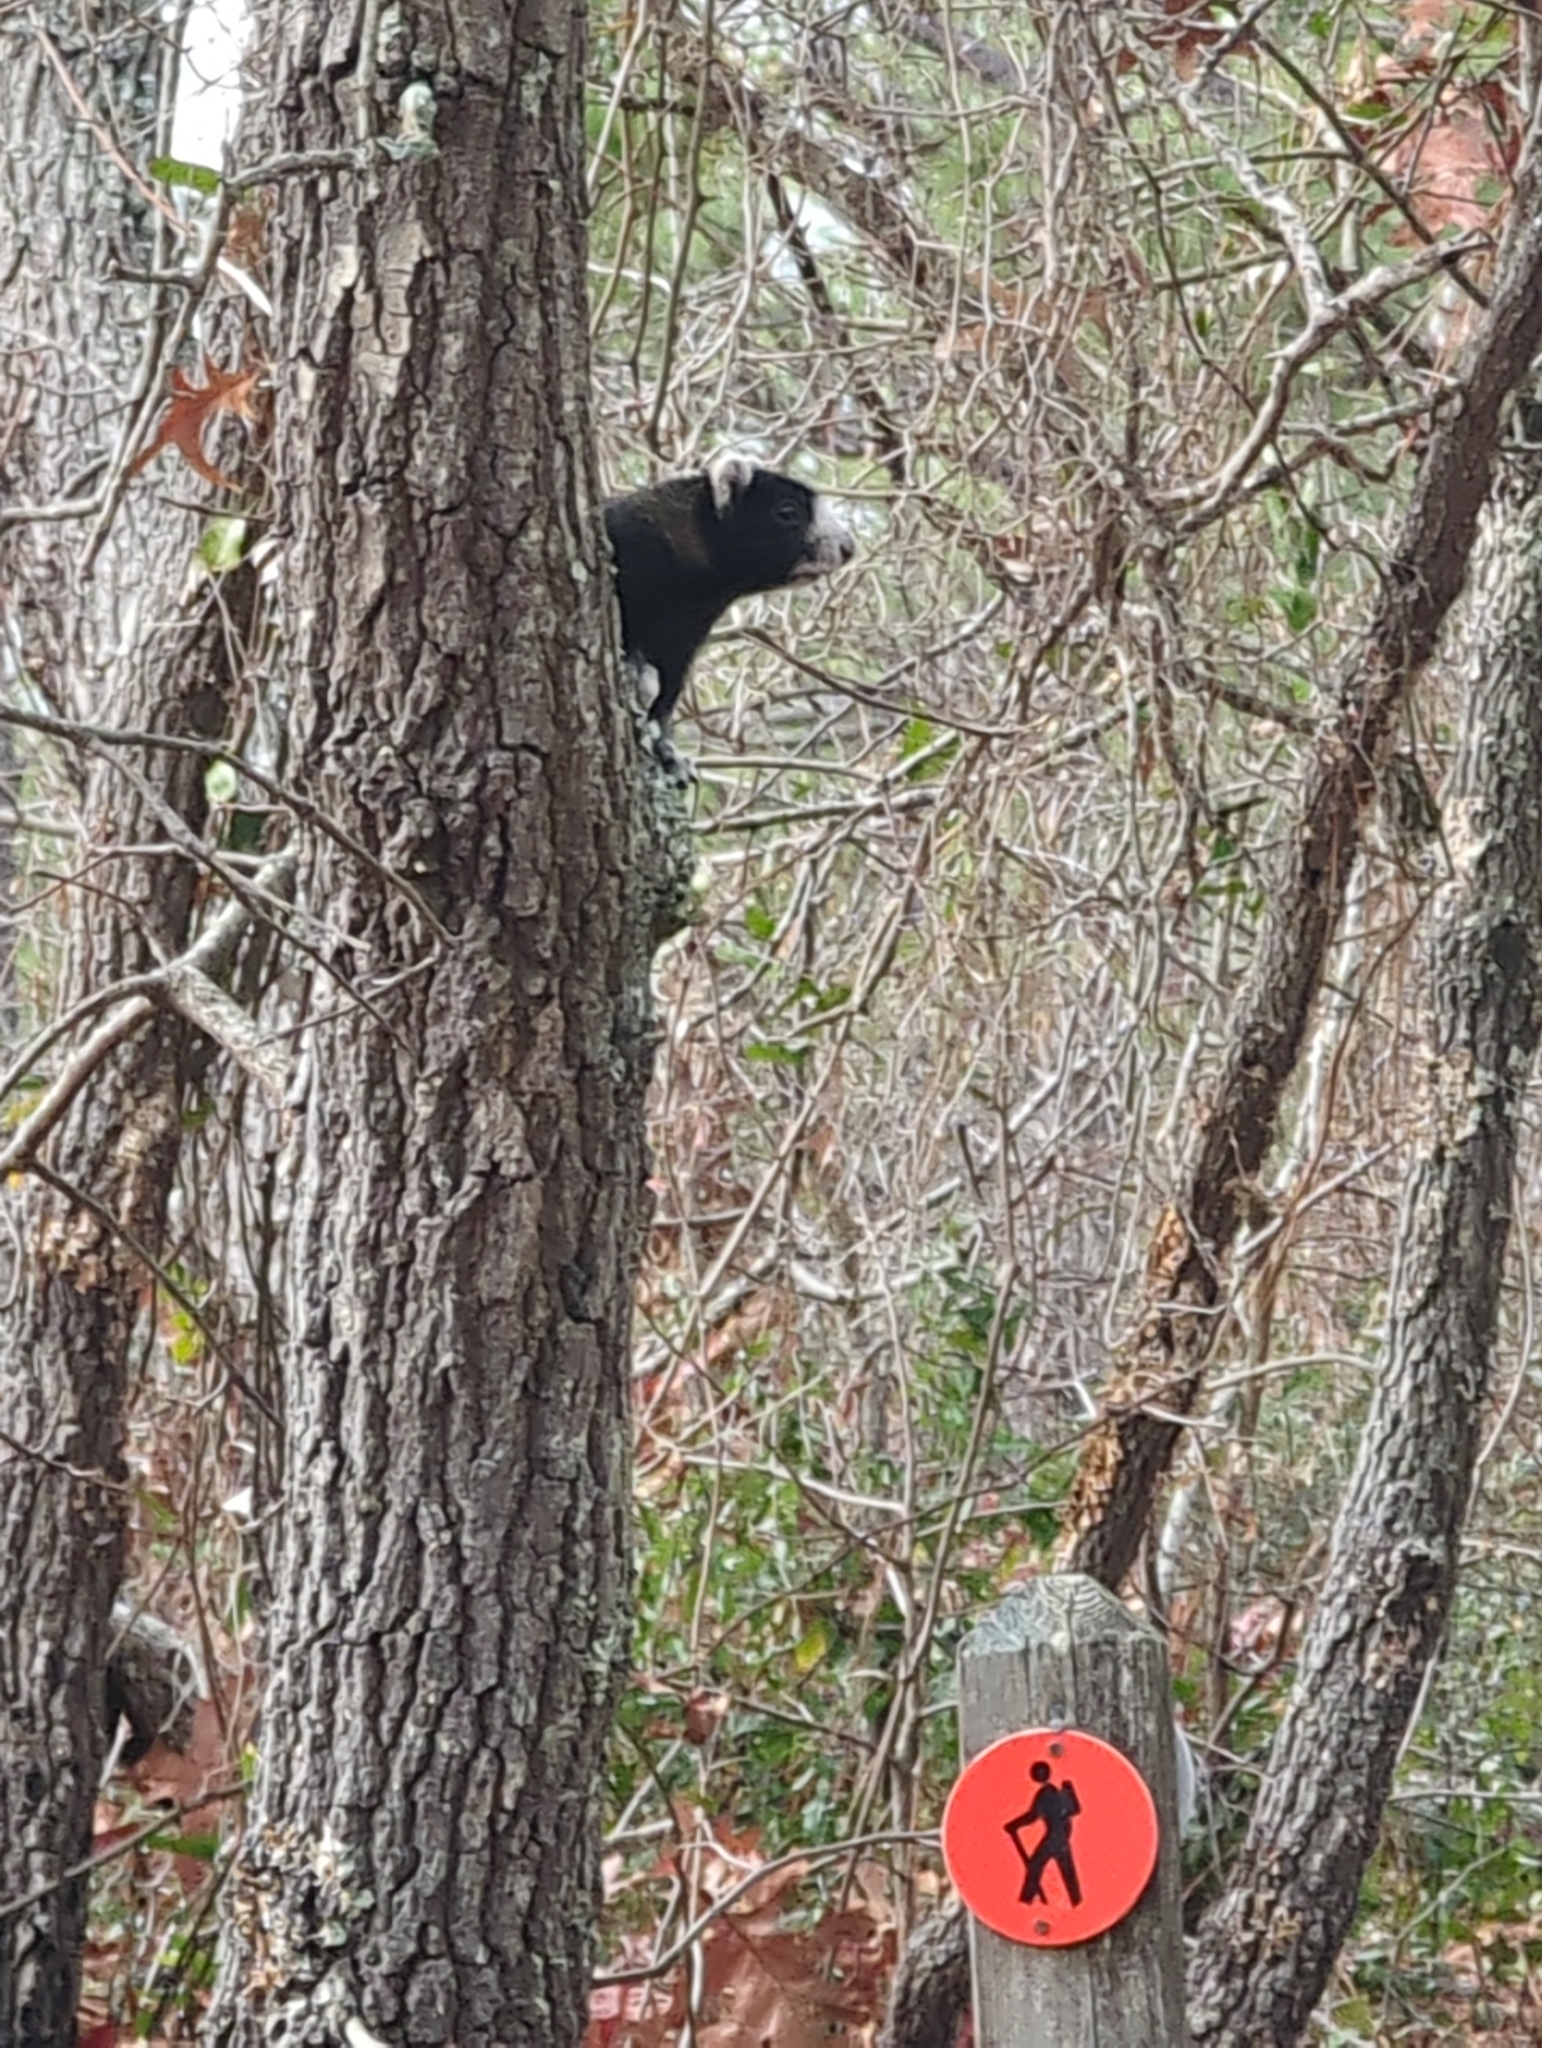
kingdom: Animalia
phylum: Chordata
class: Mammalia
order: Rodentia
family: Sciuridae
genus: Sciurus
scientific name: Sciurus niger
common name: Fox squirrel
